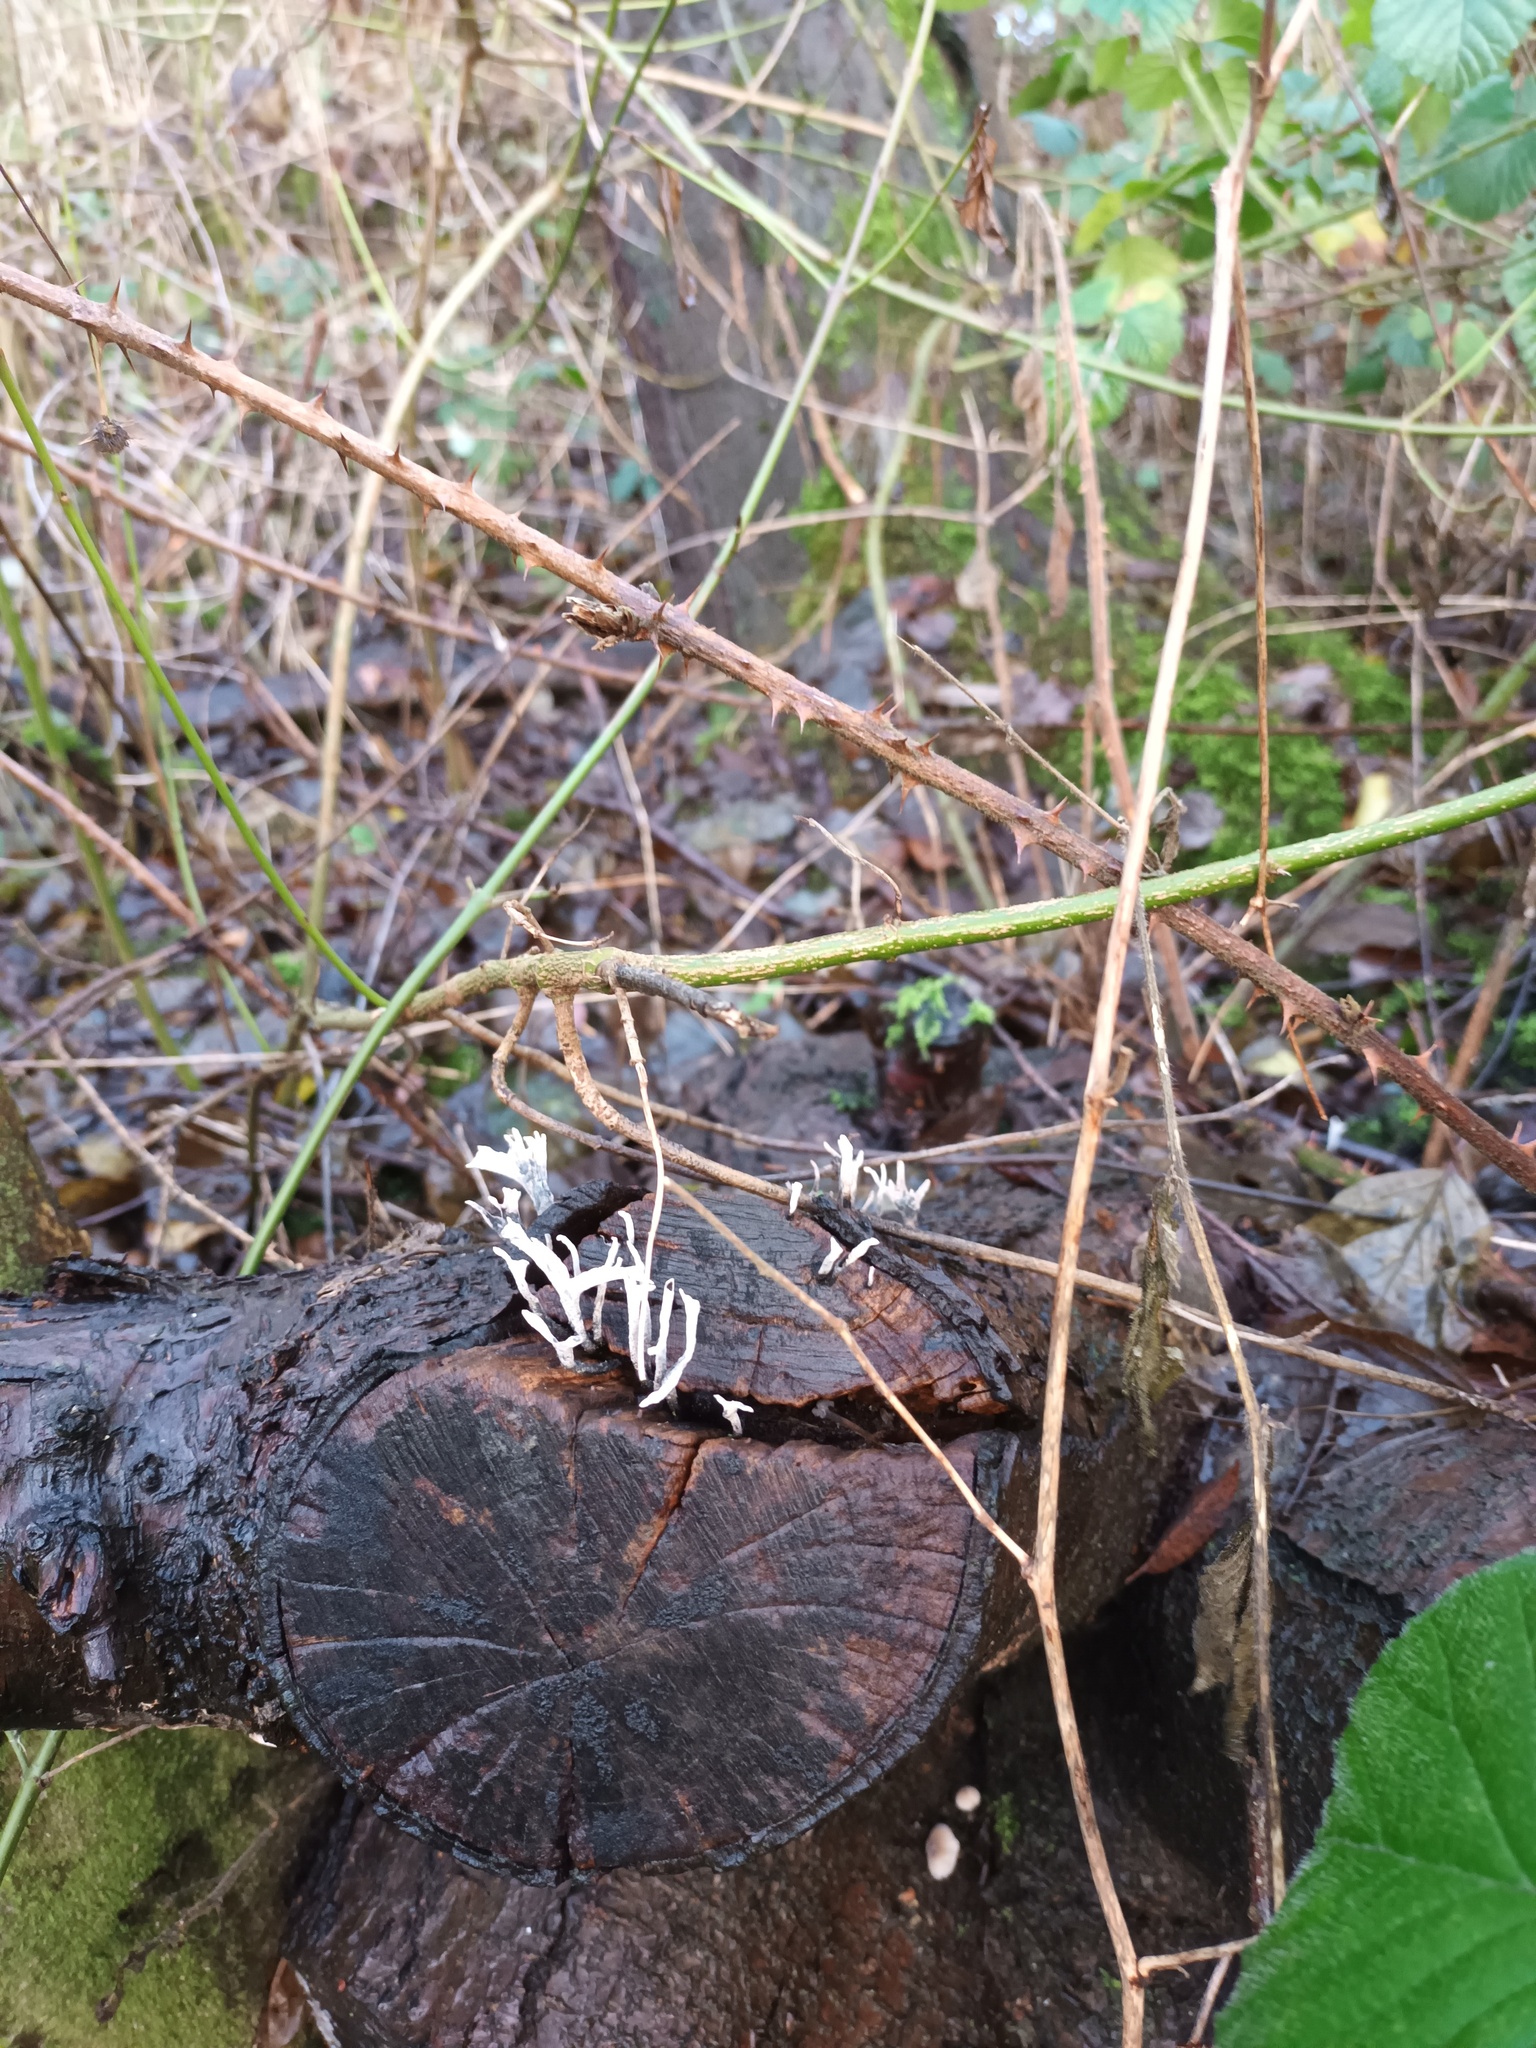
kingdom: Fungi
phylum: Ascomycota
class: Sordariomycetes
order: Xylariales
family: Xylariaceae
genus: Xylaria
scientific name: Xylaria hypoxylon
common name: Candle-snuff fungus
